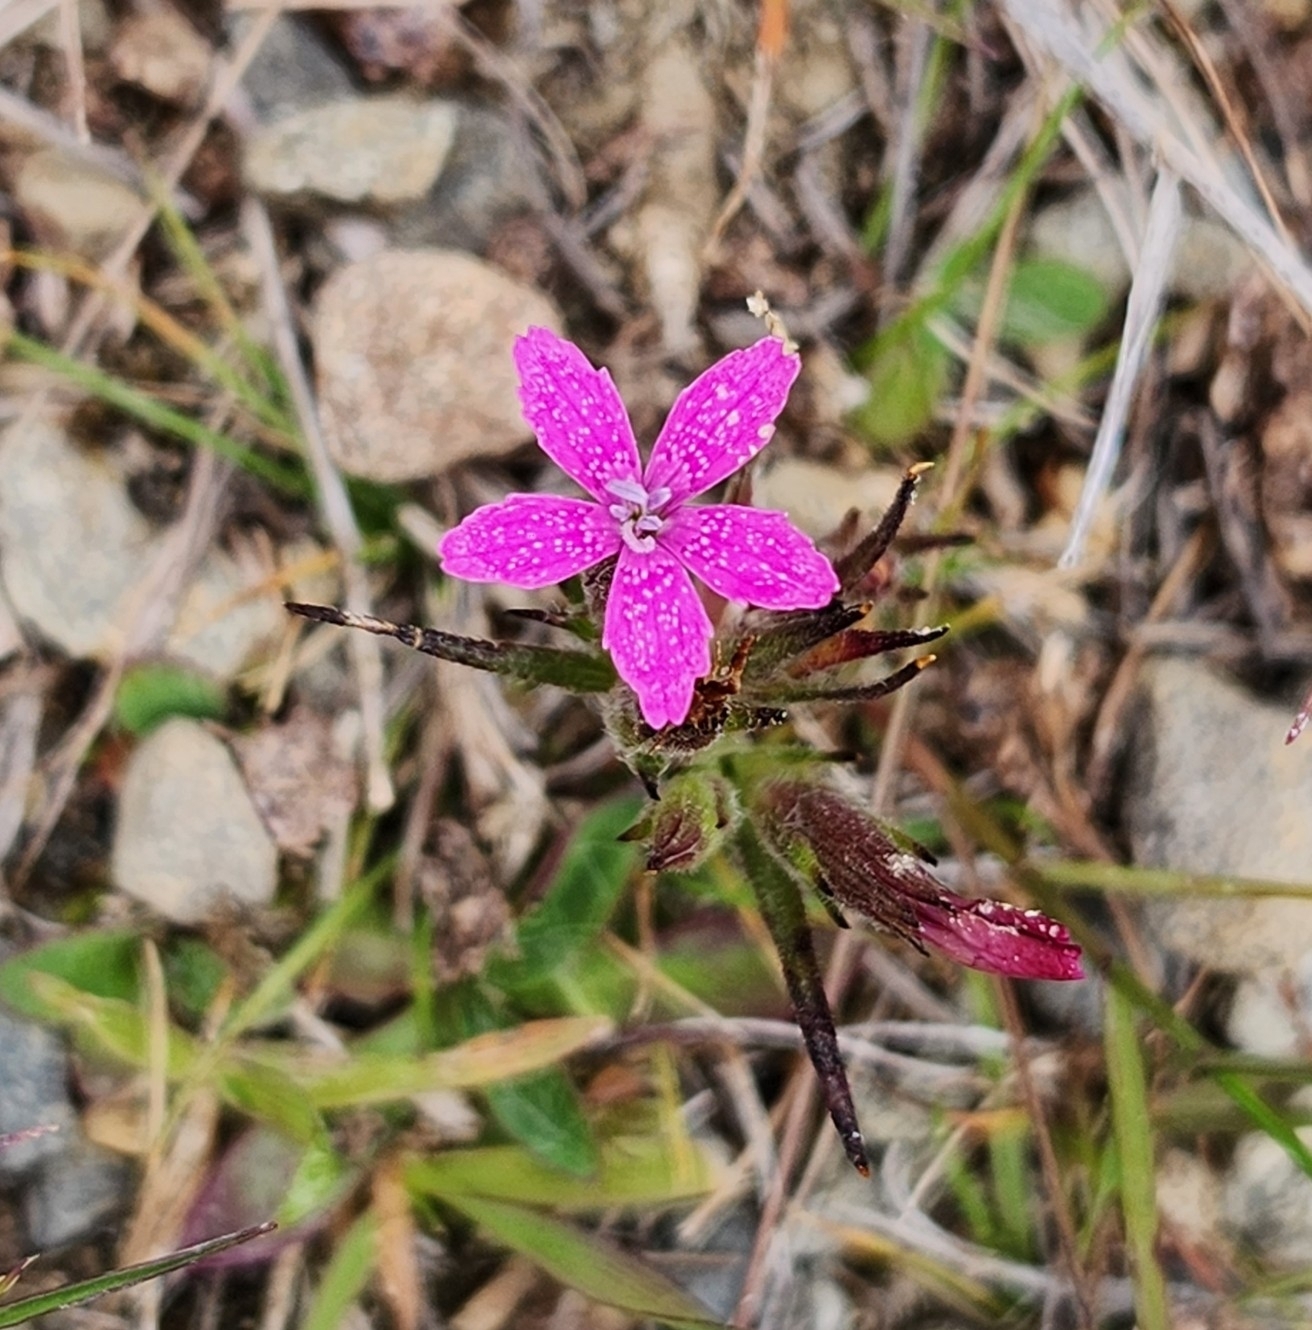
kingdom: Plantae
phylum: Tracheophyta
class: Magnoliopsida
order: Caryophyllales
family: Caryophyllaceae
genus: Dianthus
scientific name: Dianthus armeria
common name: Deptford pink
